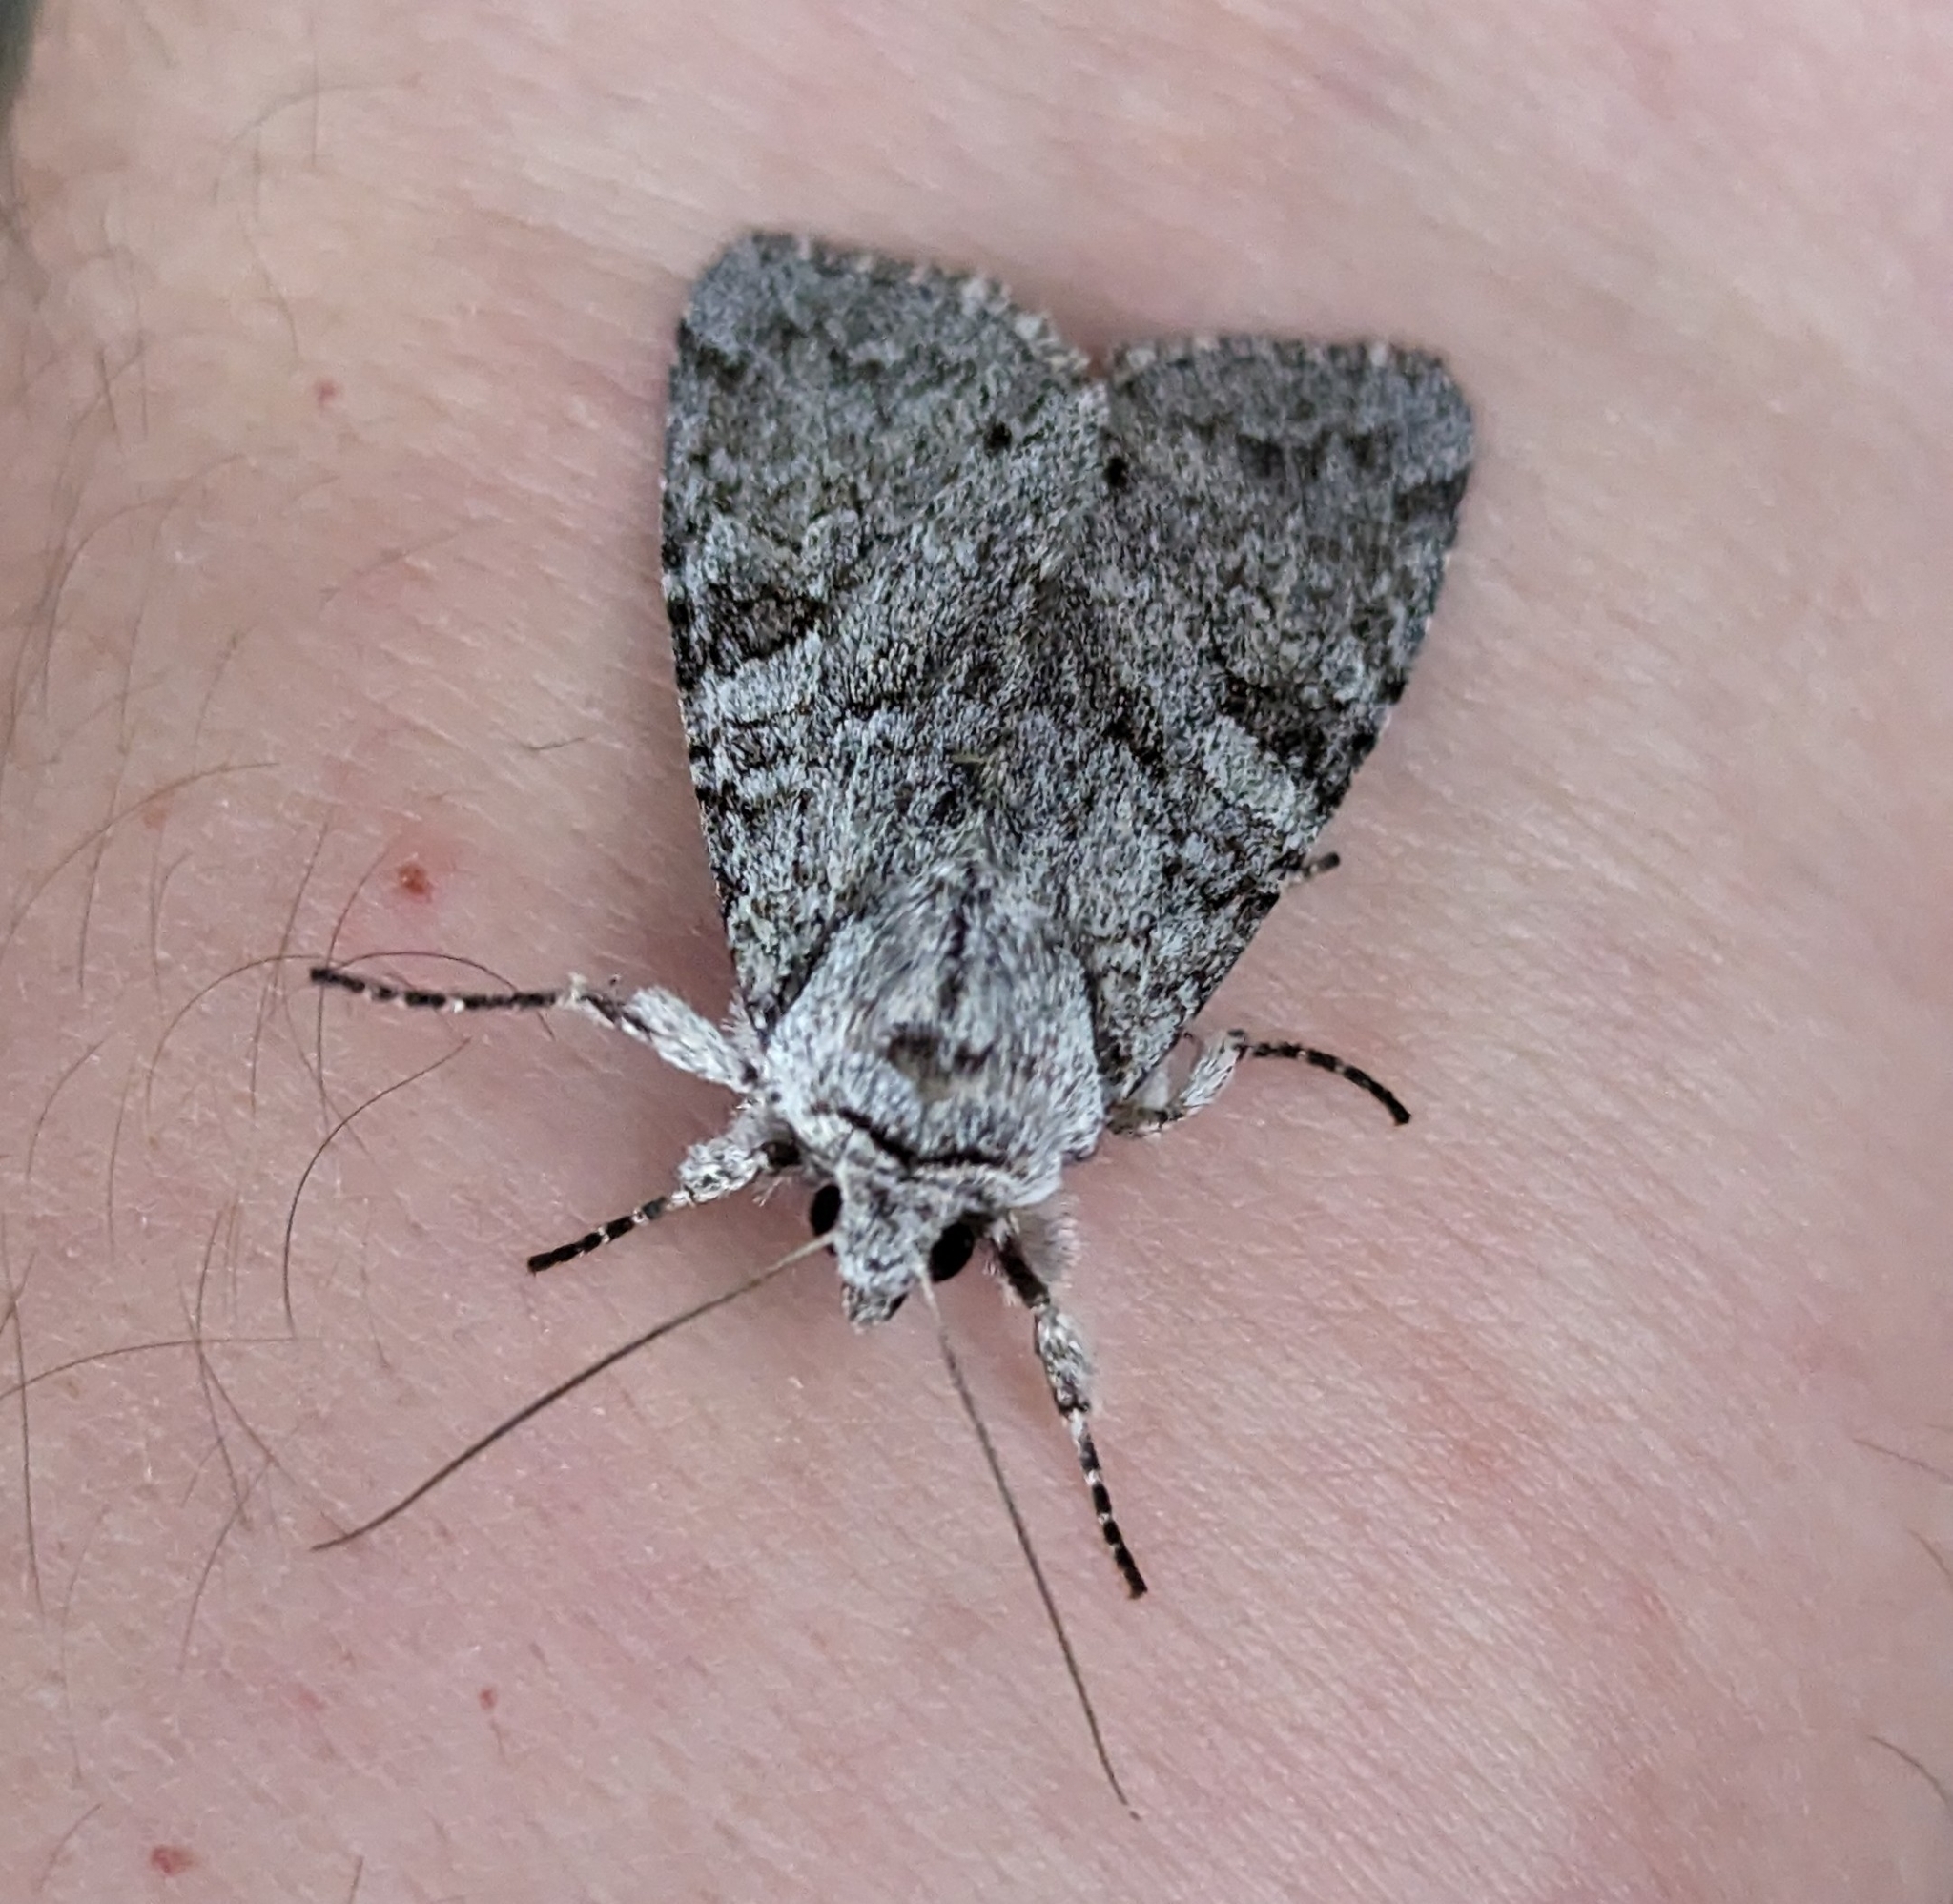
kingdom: Animalia
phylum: Arthropoda
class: Insecta
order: Lepidoptera
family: Noctuidae
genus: Polia
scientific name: Polia nimbosa
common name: Stormy arches
